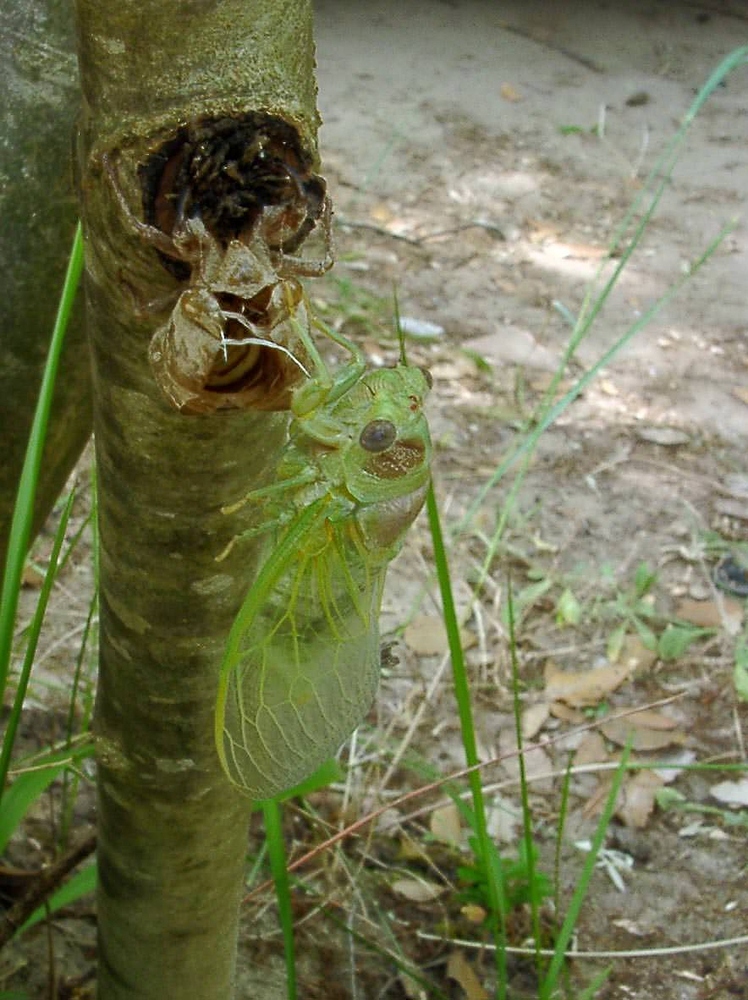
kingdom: Animalia
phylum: Arthropoda
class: Insecta
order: Hemiptera
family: Cicadidae
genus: Lyristes
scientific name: Lyristes plebejus
